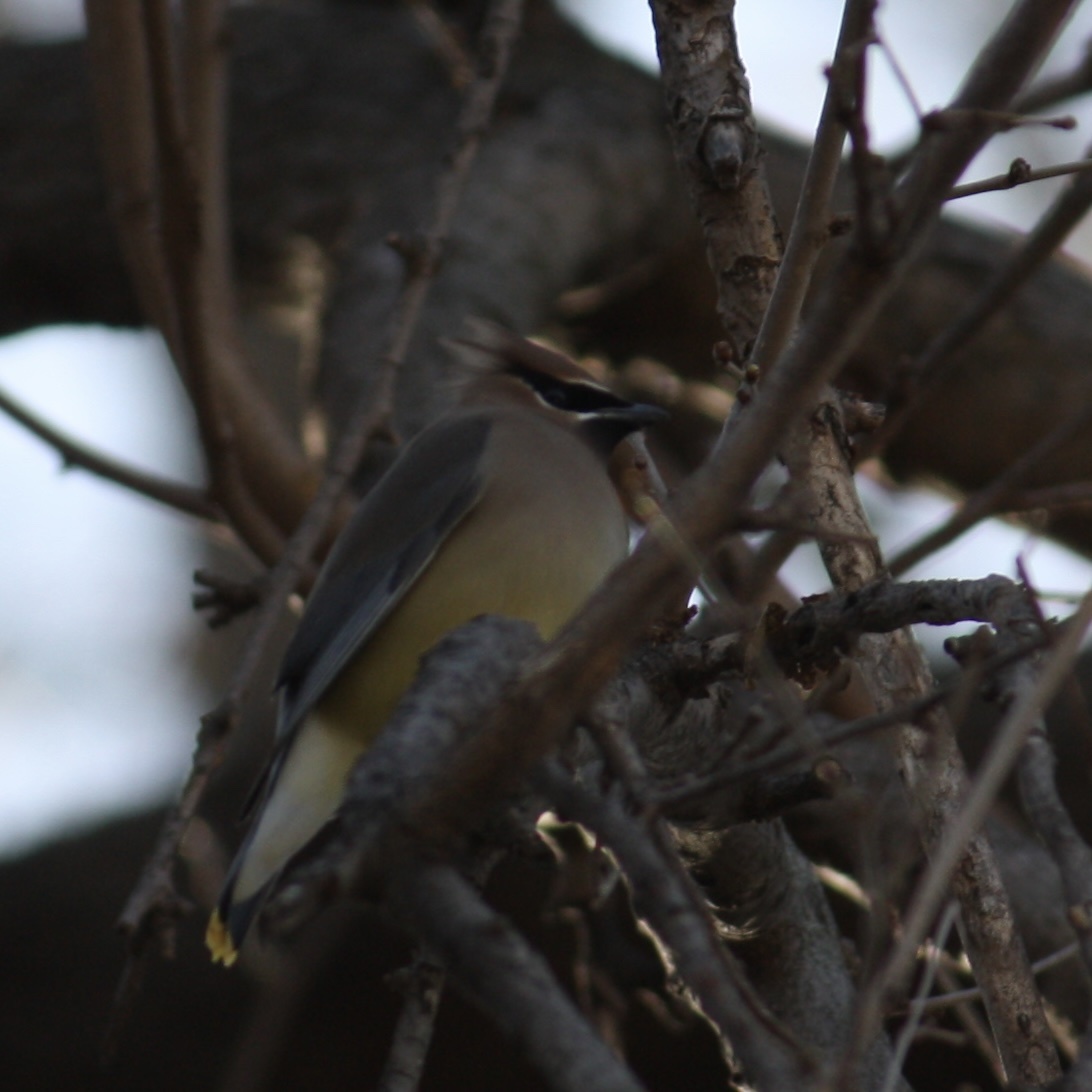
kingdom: Animalia
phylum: Chordata
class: Aves
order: Passeriformes
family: Bombycillidae
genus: Bombycilla
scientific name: Bombycilla cedrorum
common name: Cedar waxwing
